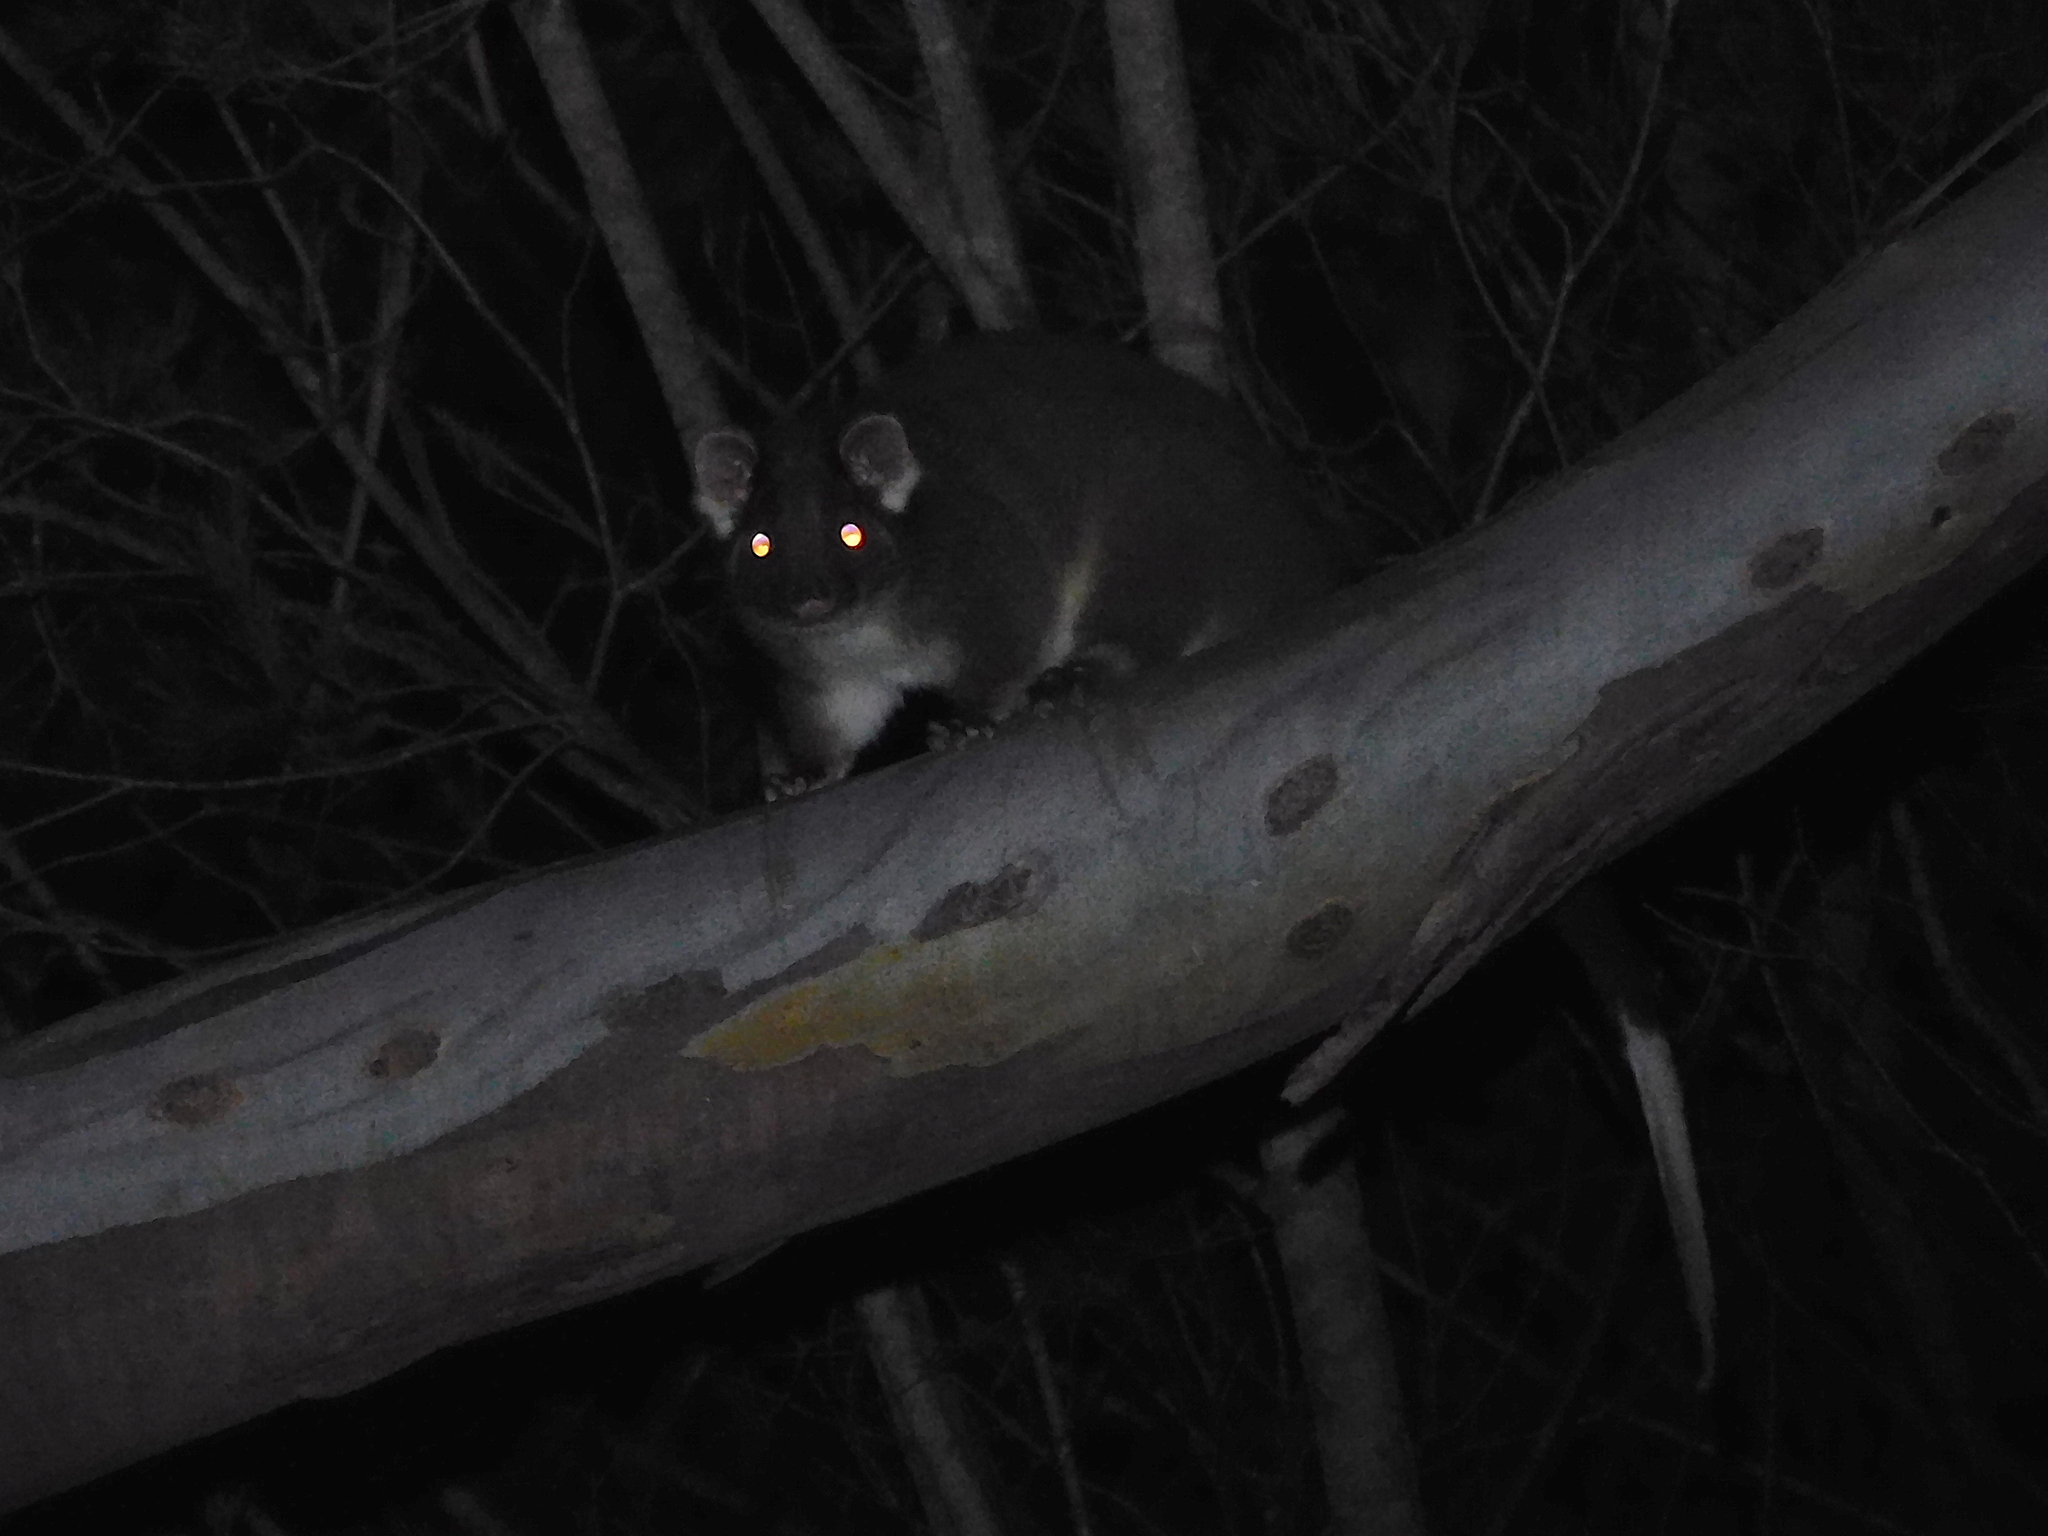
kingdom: Animalia
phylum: Chordata
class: Mammalia
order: Diprotodontia
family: Pseudocheiridae
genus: Pseudocheirus
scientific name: Pseudocheirus peregrinus
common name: Common ringtail possum
